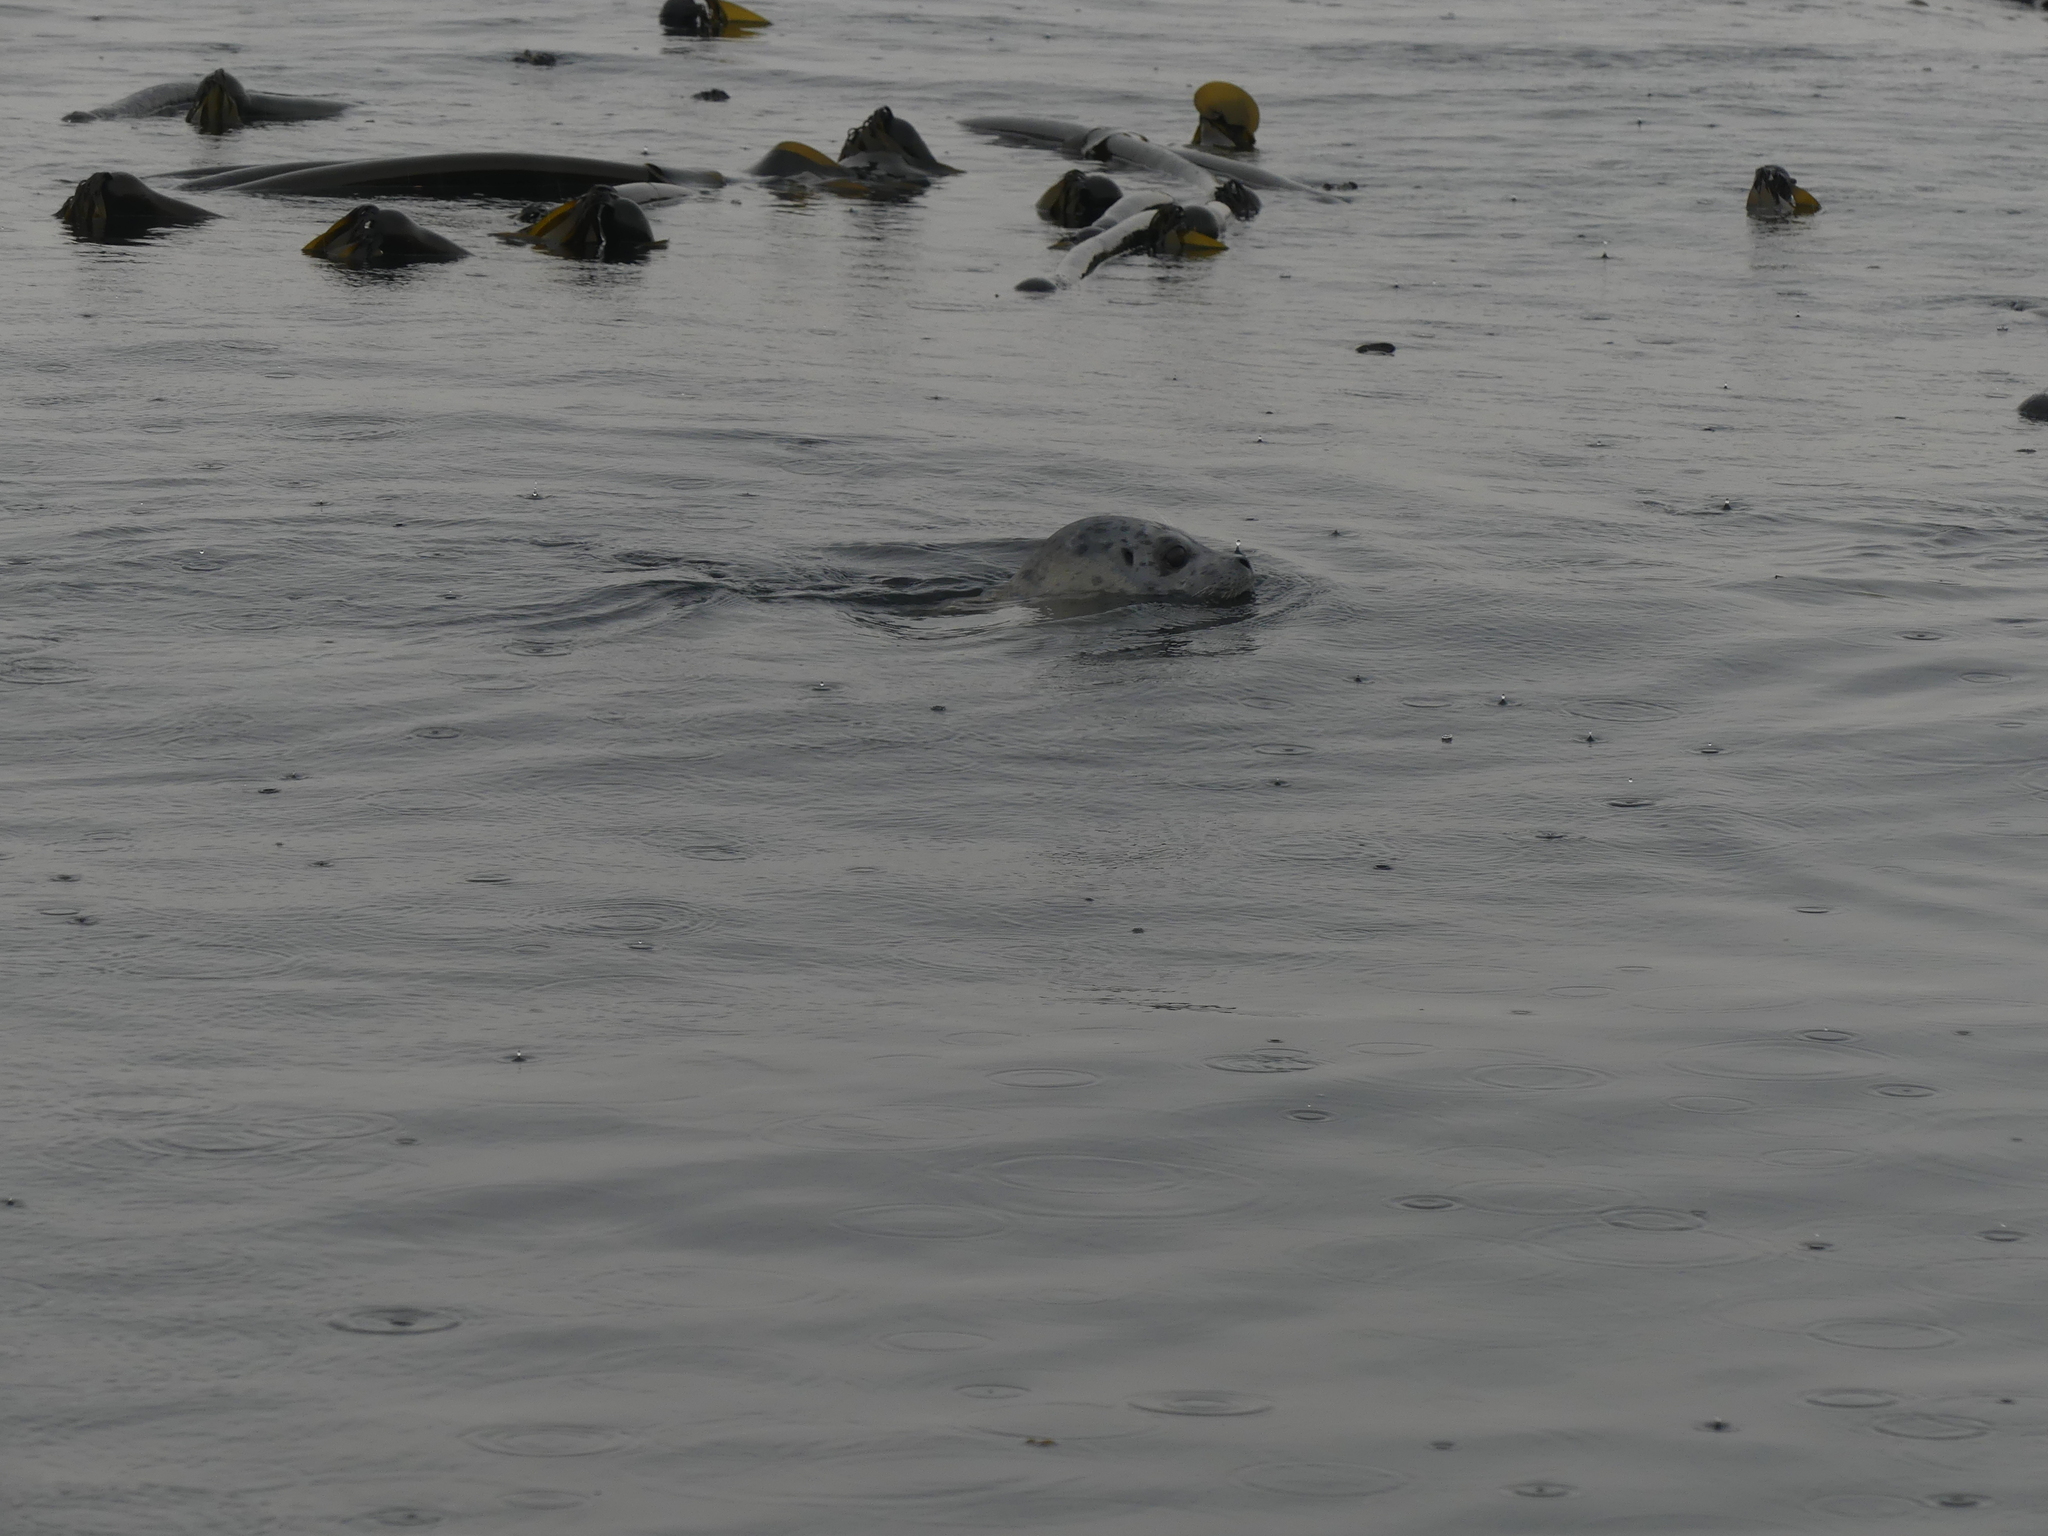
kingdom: Animalia
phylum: Chordata
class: Mammalia
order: Carnivora
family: Phocidae
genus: Phoca
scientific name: Phoca vitulina
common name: Harbor seal
